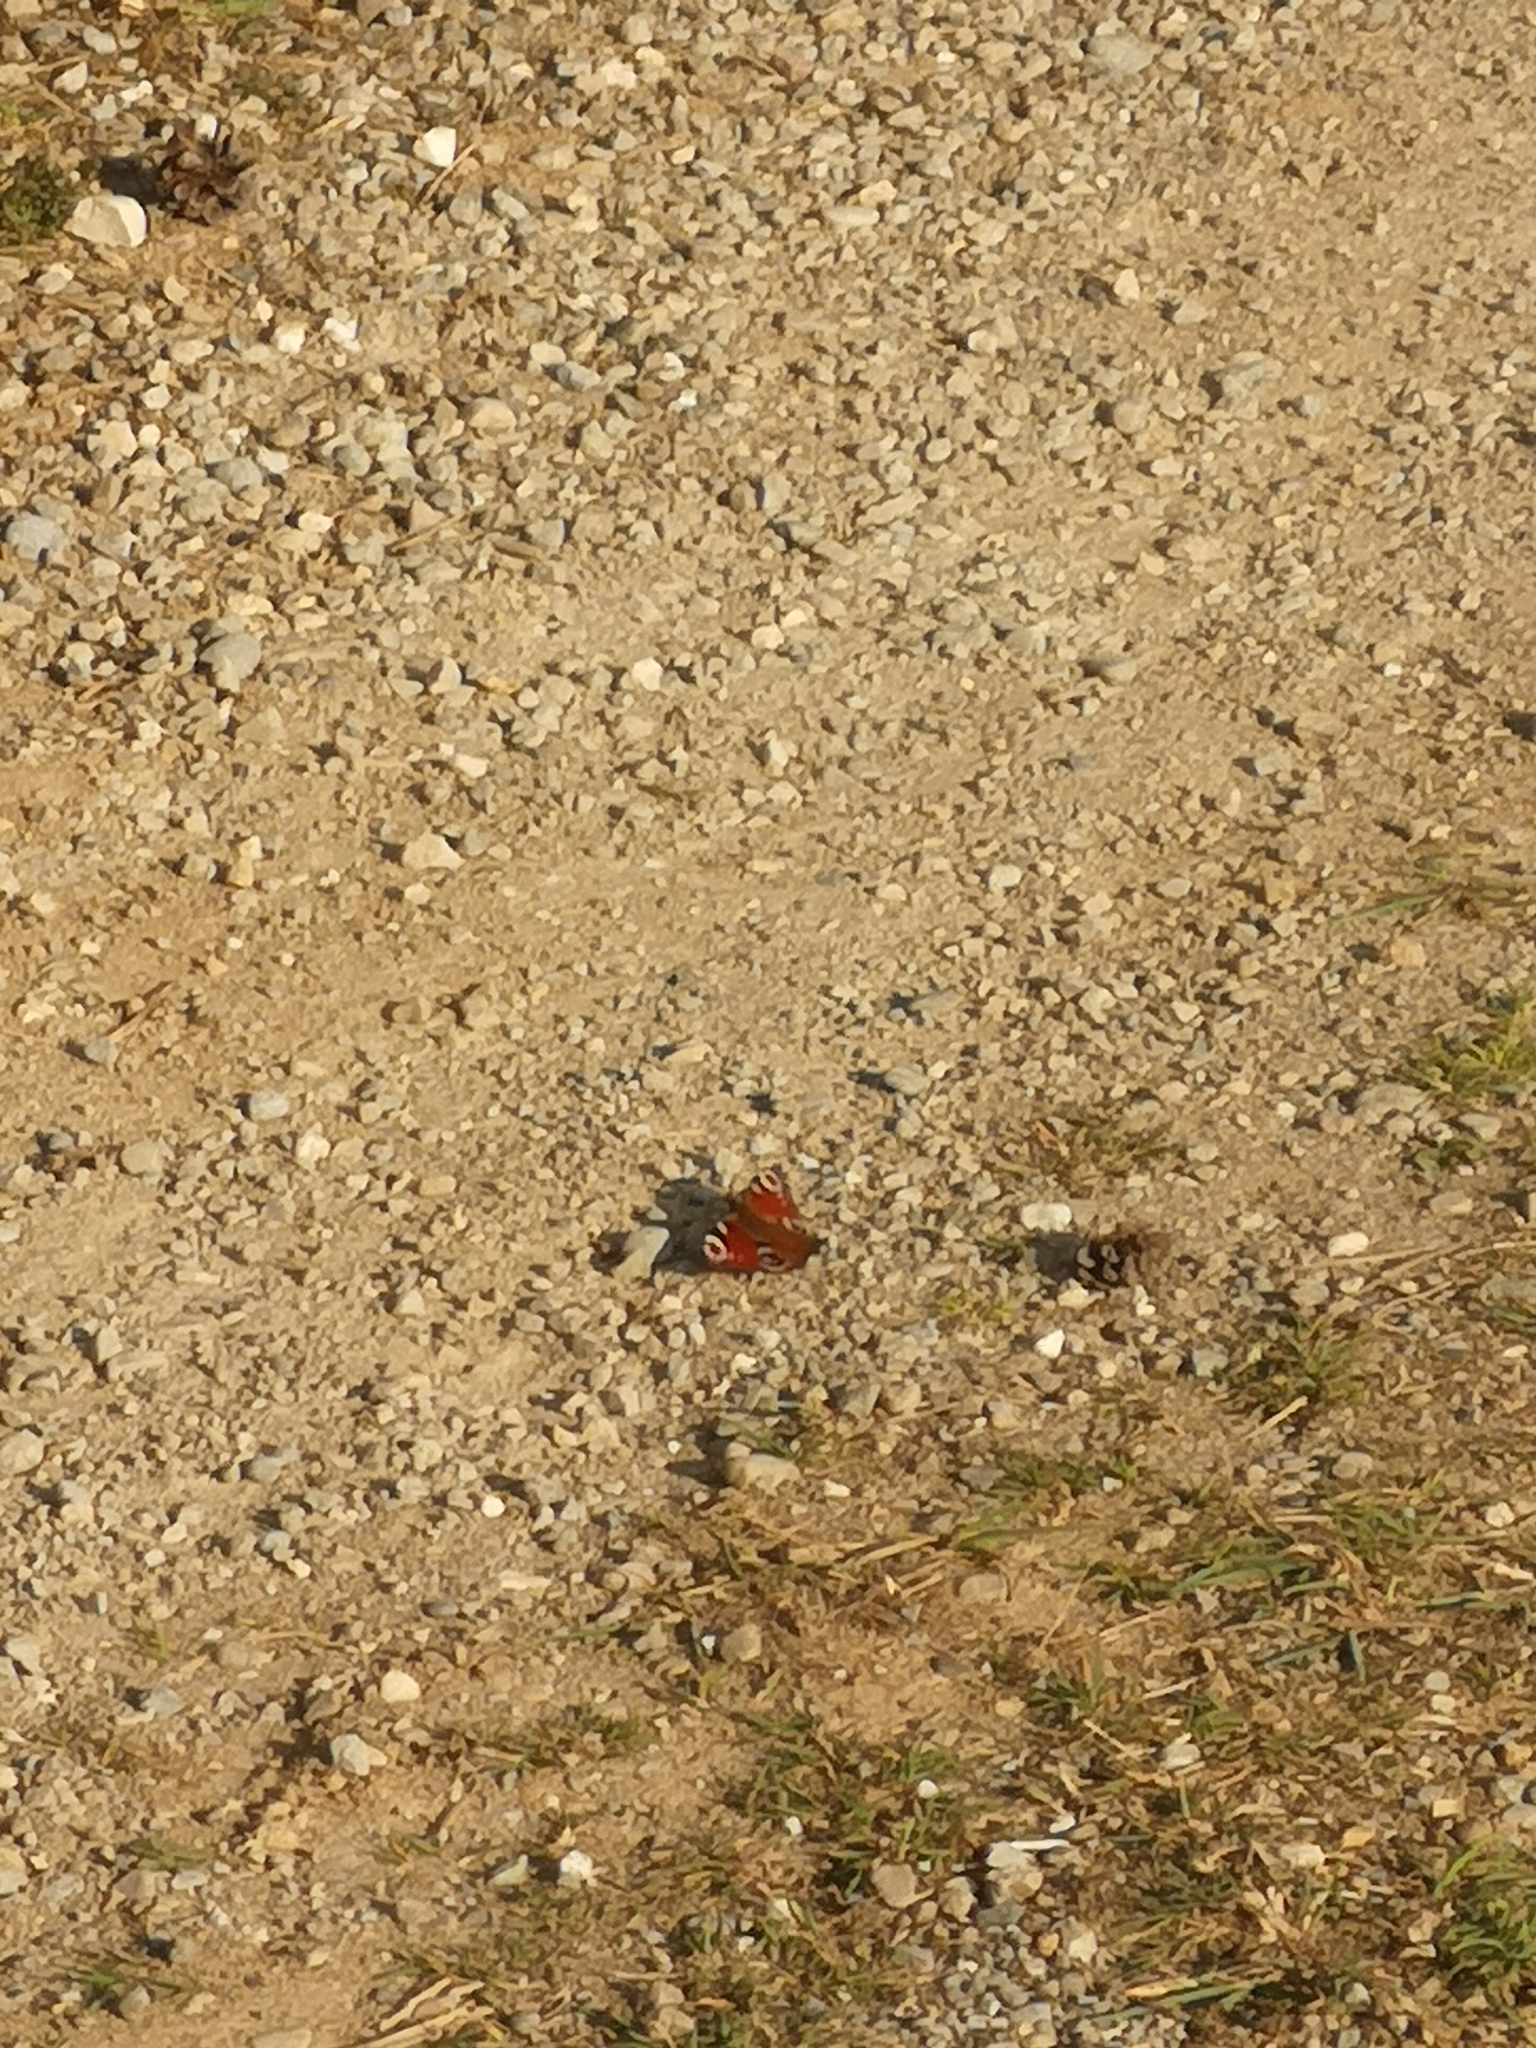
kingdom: Animalia
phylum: Arthropoda
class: Insecta
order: Lepidoptera
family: Nymphalidae
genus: Aglais
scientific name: Aglais io
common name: Peacock
